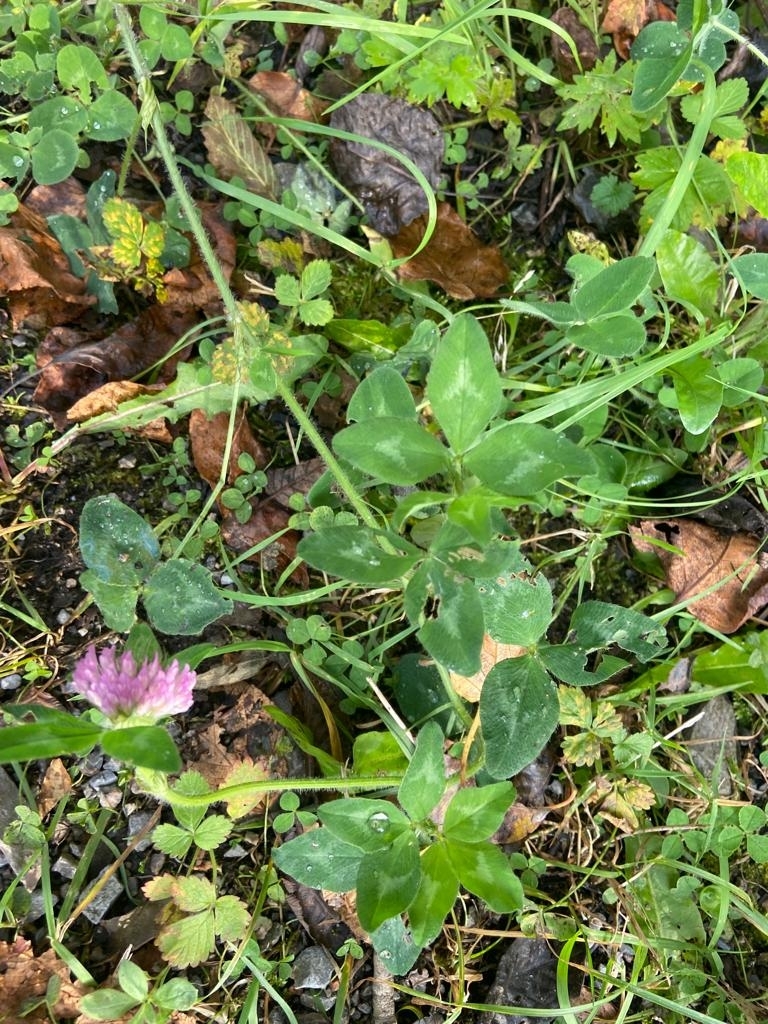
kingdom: Plantae
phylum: Tracheophyta
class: Magnoliopsida
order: Fabales
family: Fabaceae
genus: Trifolium
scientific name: Trifolium pratense
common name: Red clover
